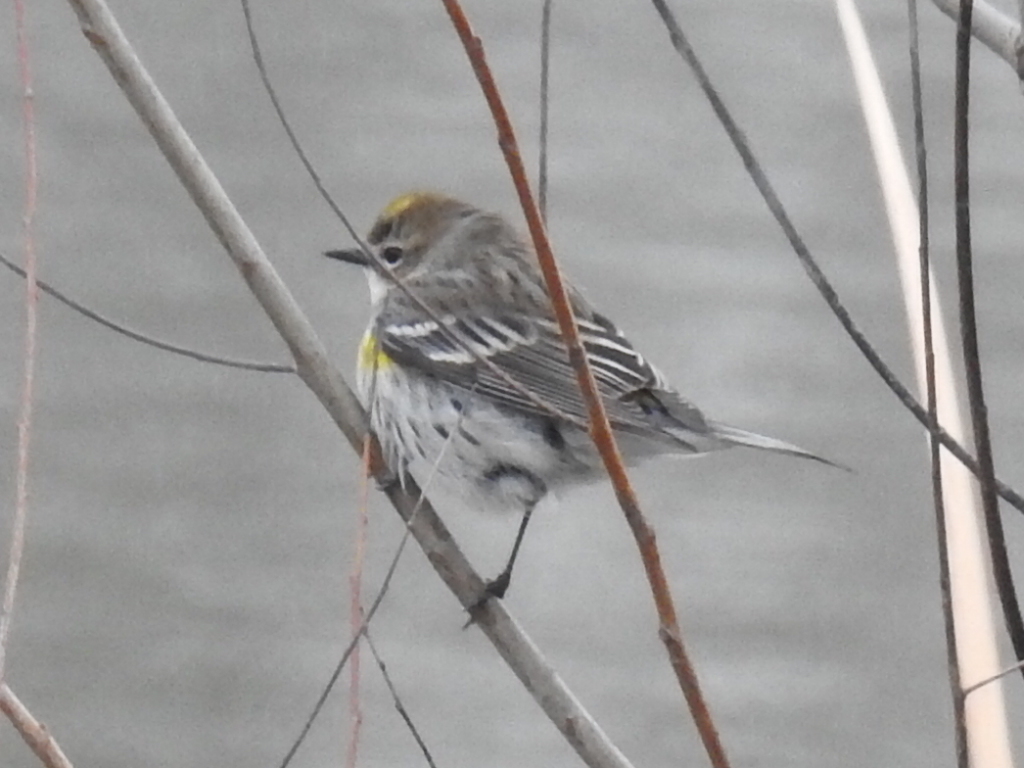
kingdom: Animalia
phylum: Chordata
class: Aves
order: Passeriformes
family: Parulidae
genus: Setophaga
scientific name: Setophaga coronata
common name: Myrtle warbler
